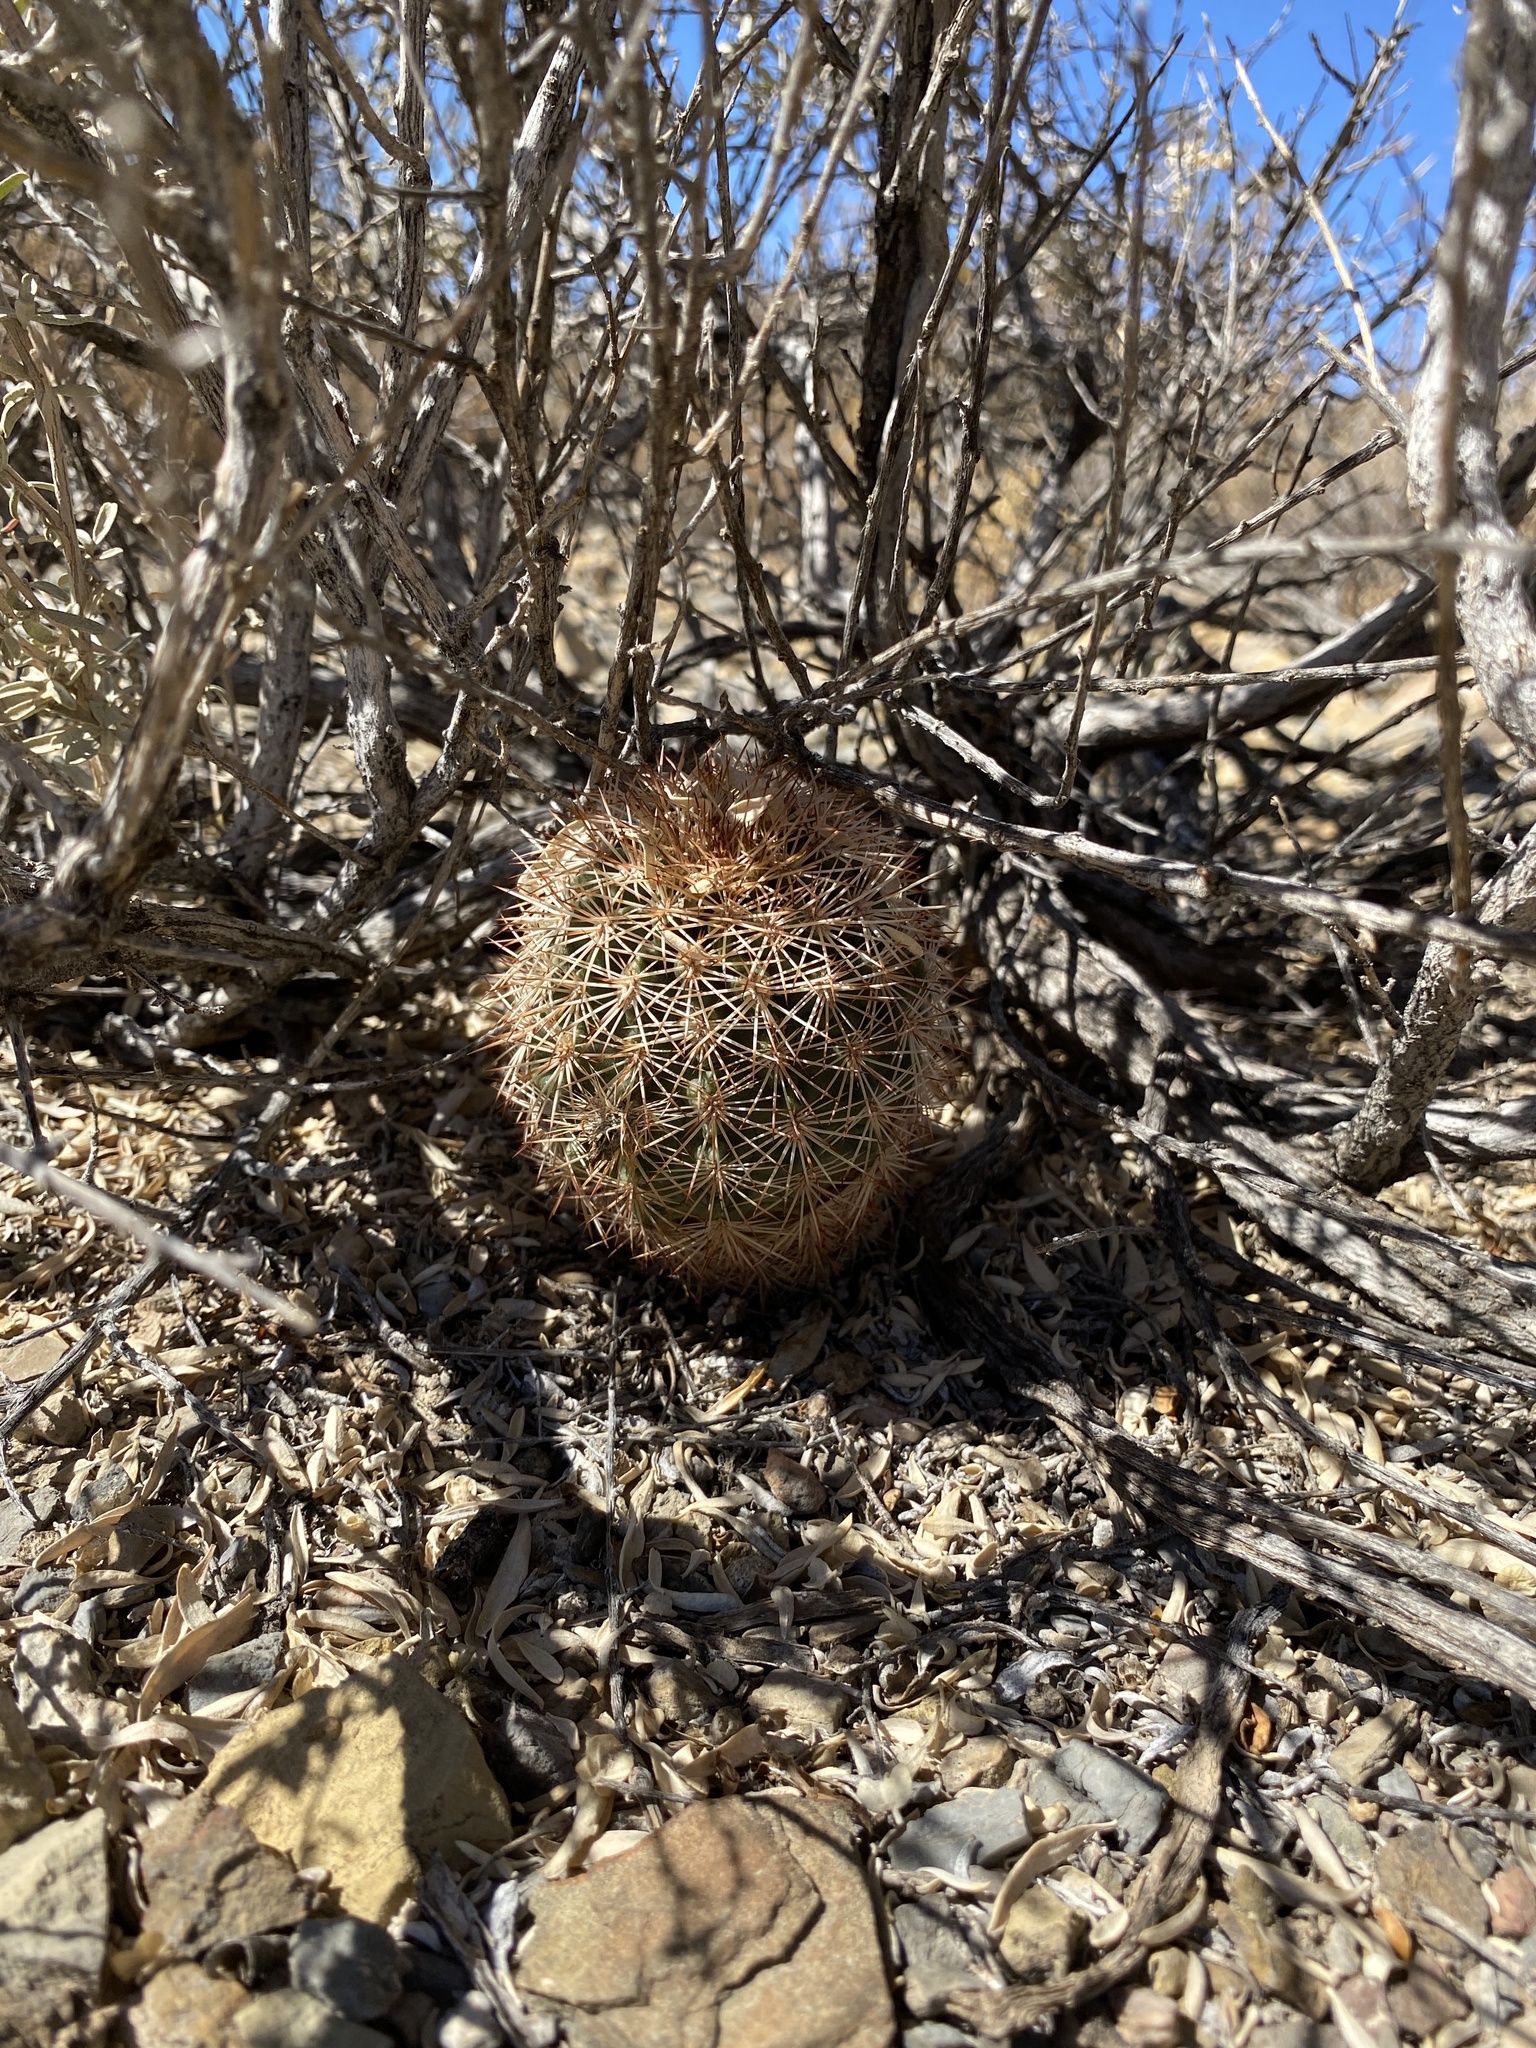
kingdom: Plantae
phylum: Tracheophyta
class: Magnoliopsida
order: Caryophyllales
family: Cactaceae
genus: Echinocereus
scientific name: Echinocereus dasyacanthus
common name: Spiny hedgehog cactus
